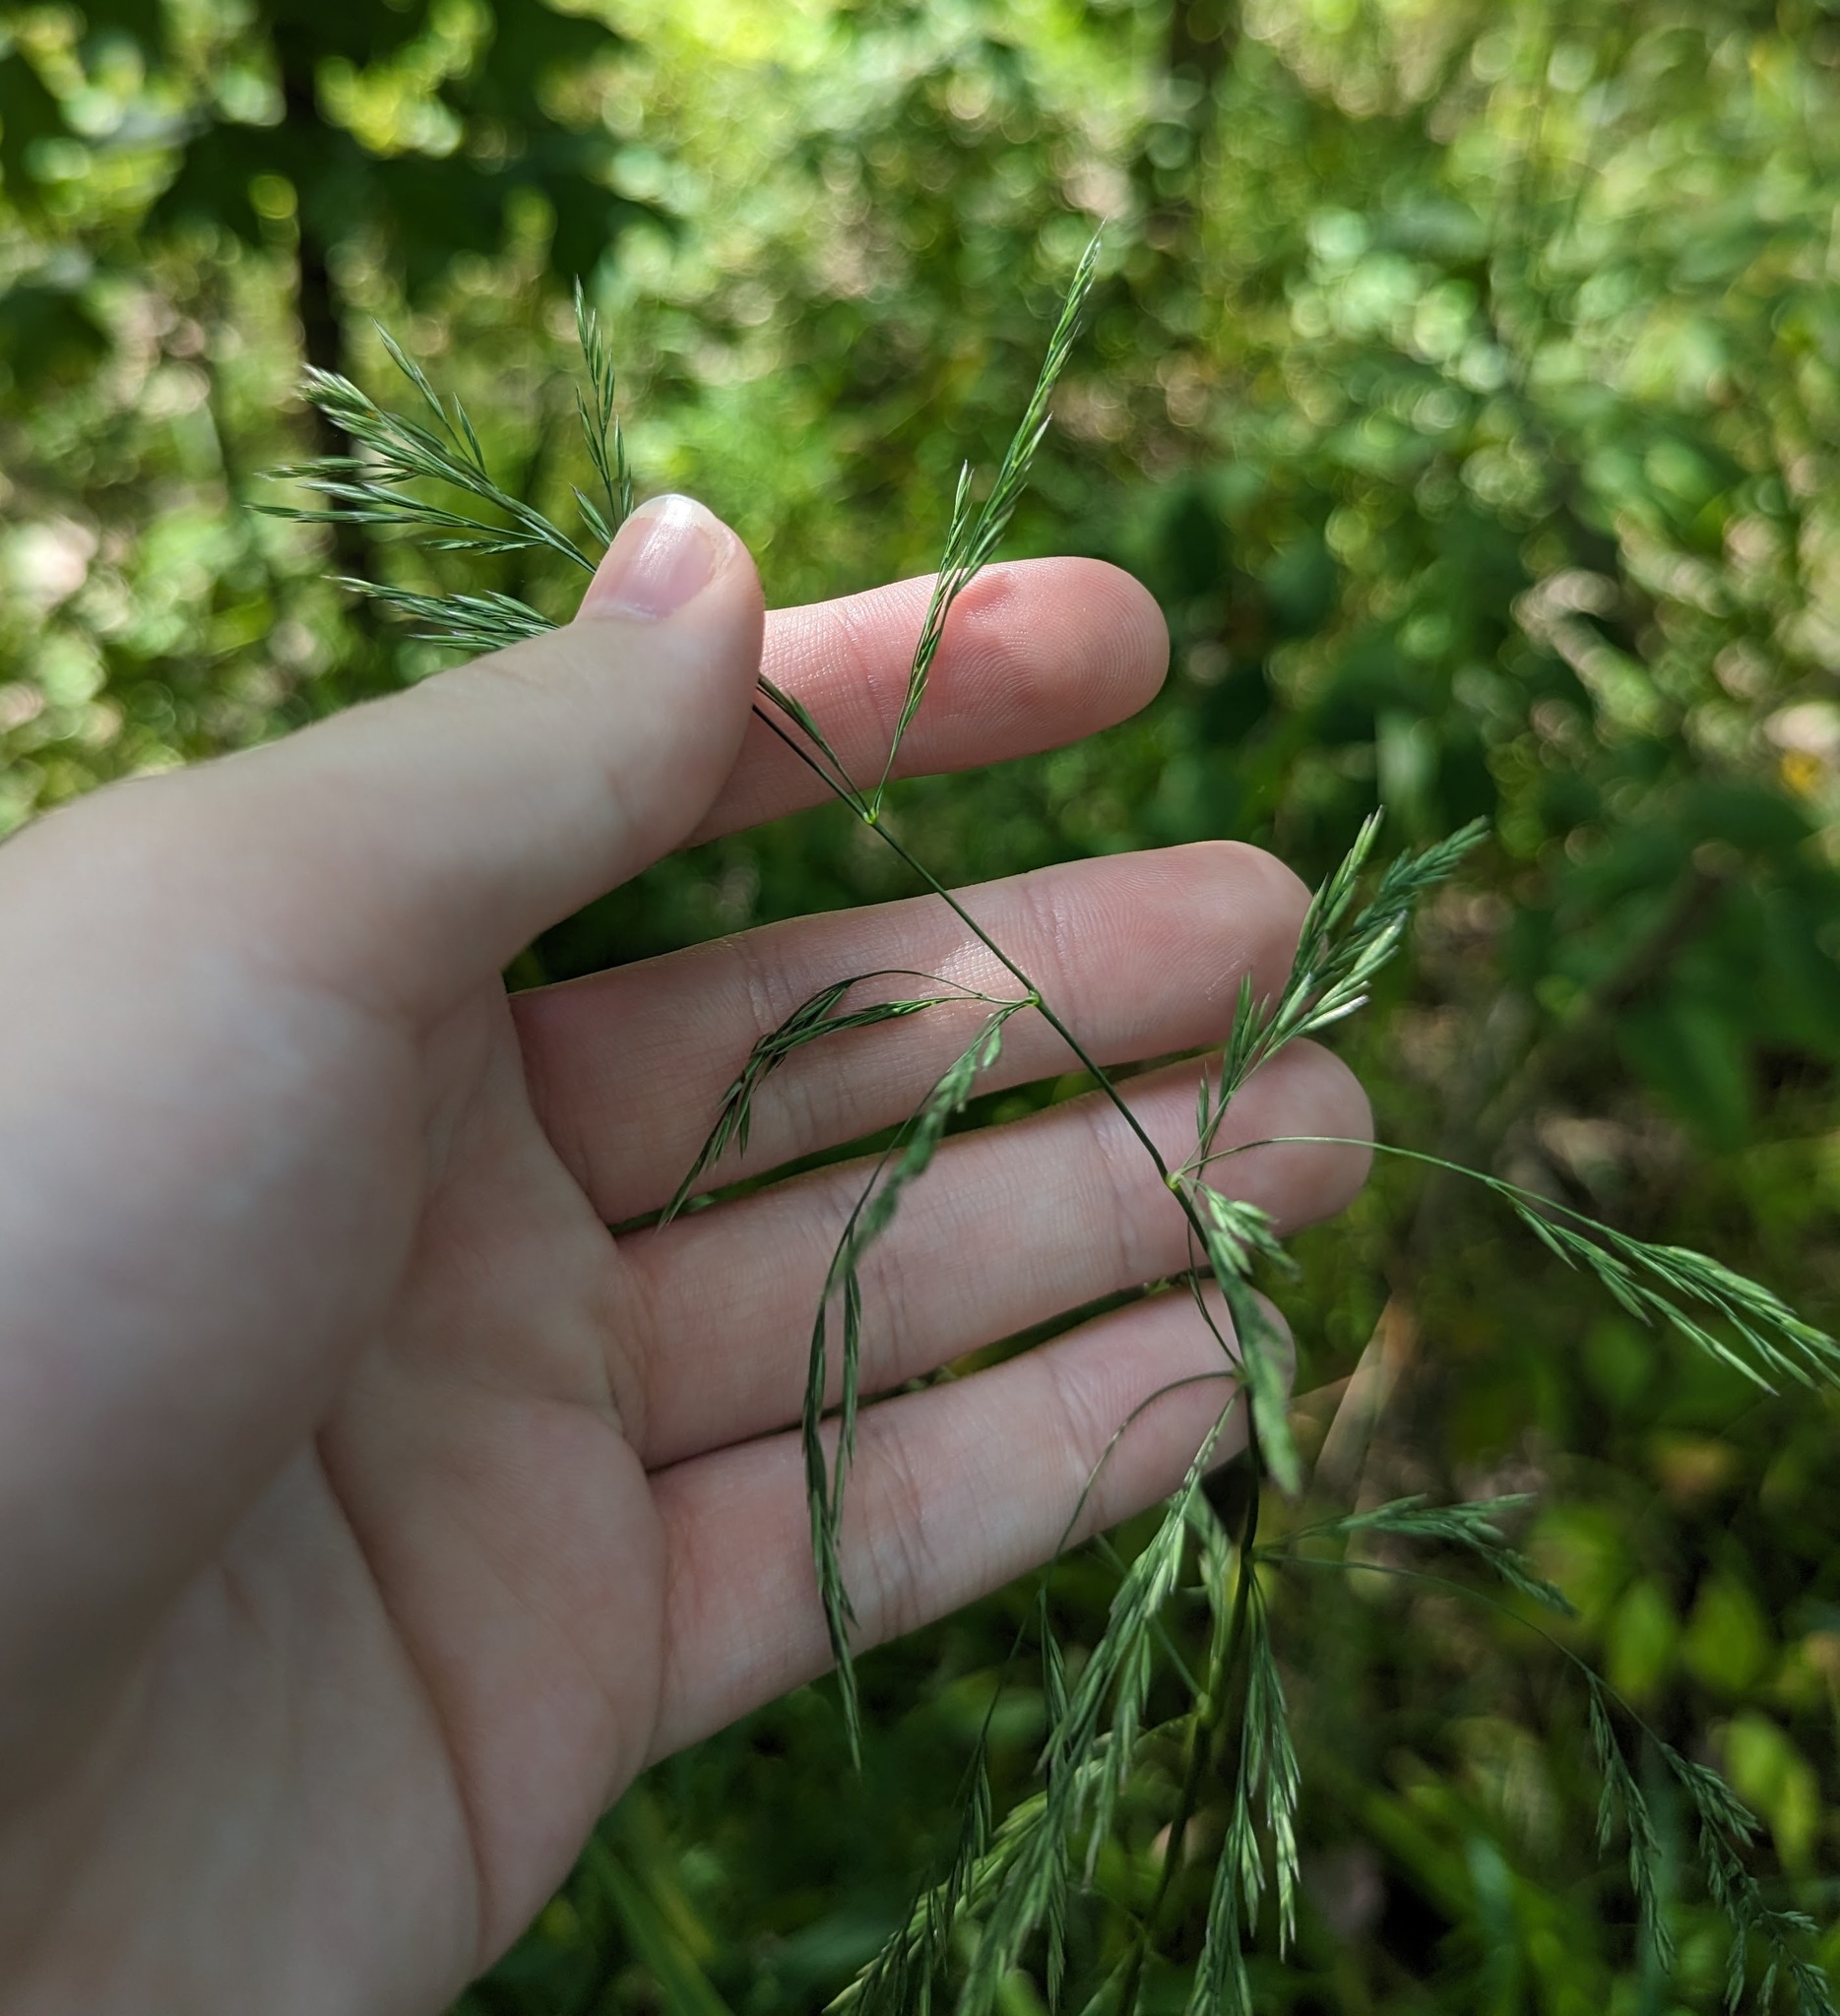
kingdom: Plantae
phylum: Tracheophyta
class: Liliopsida
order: Poales
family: Poaceae
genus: Cinna
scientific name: Cinna arundinacea
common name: Stout woodreed
